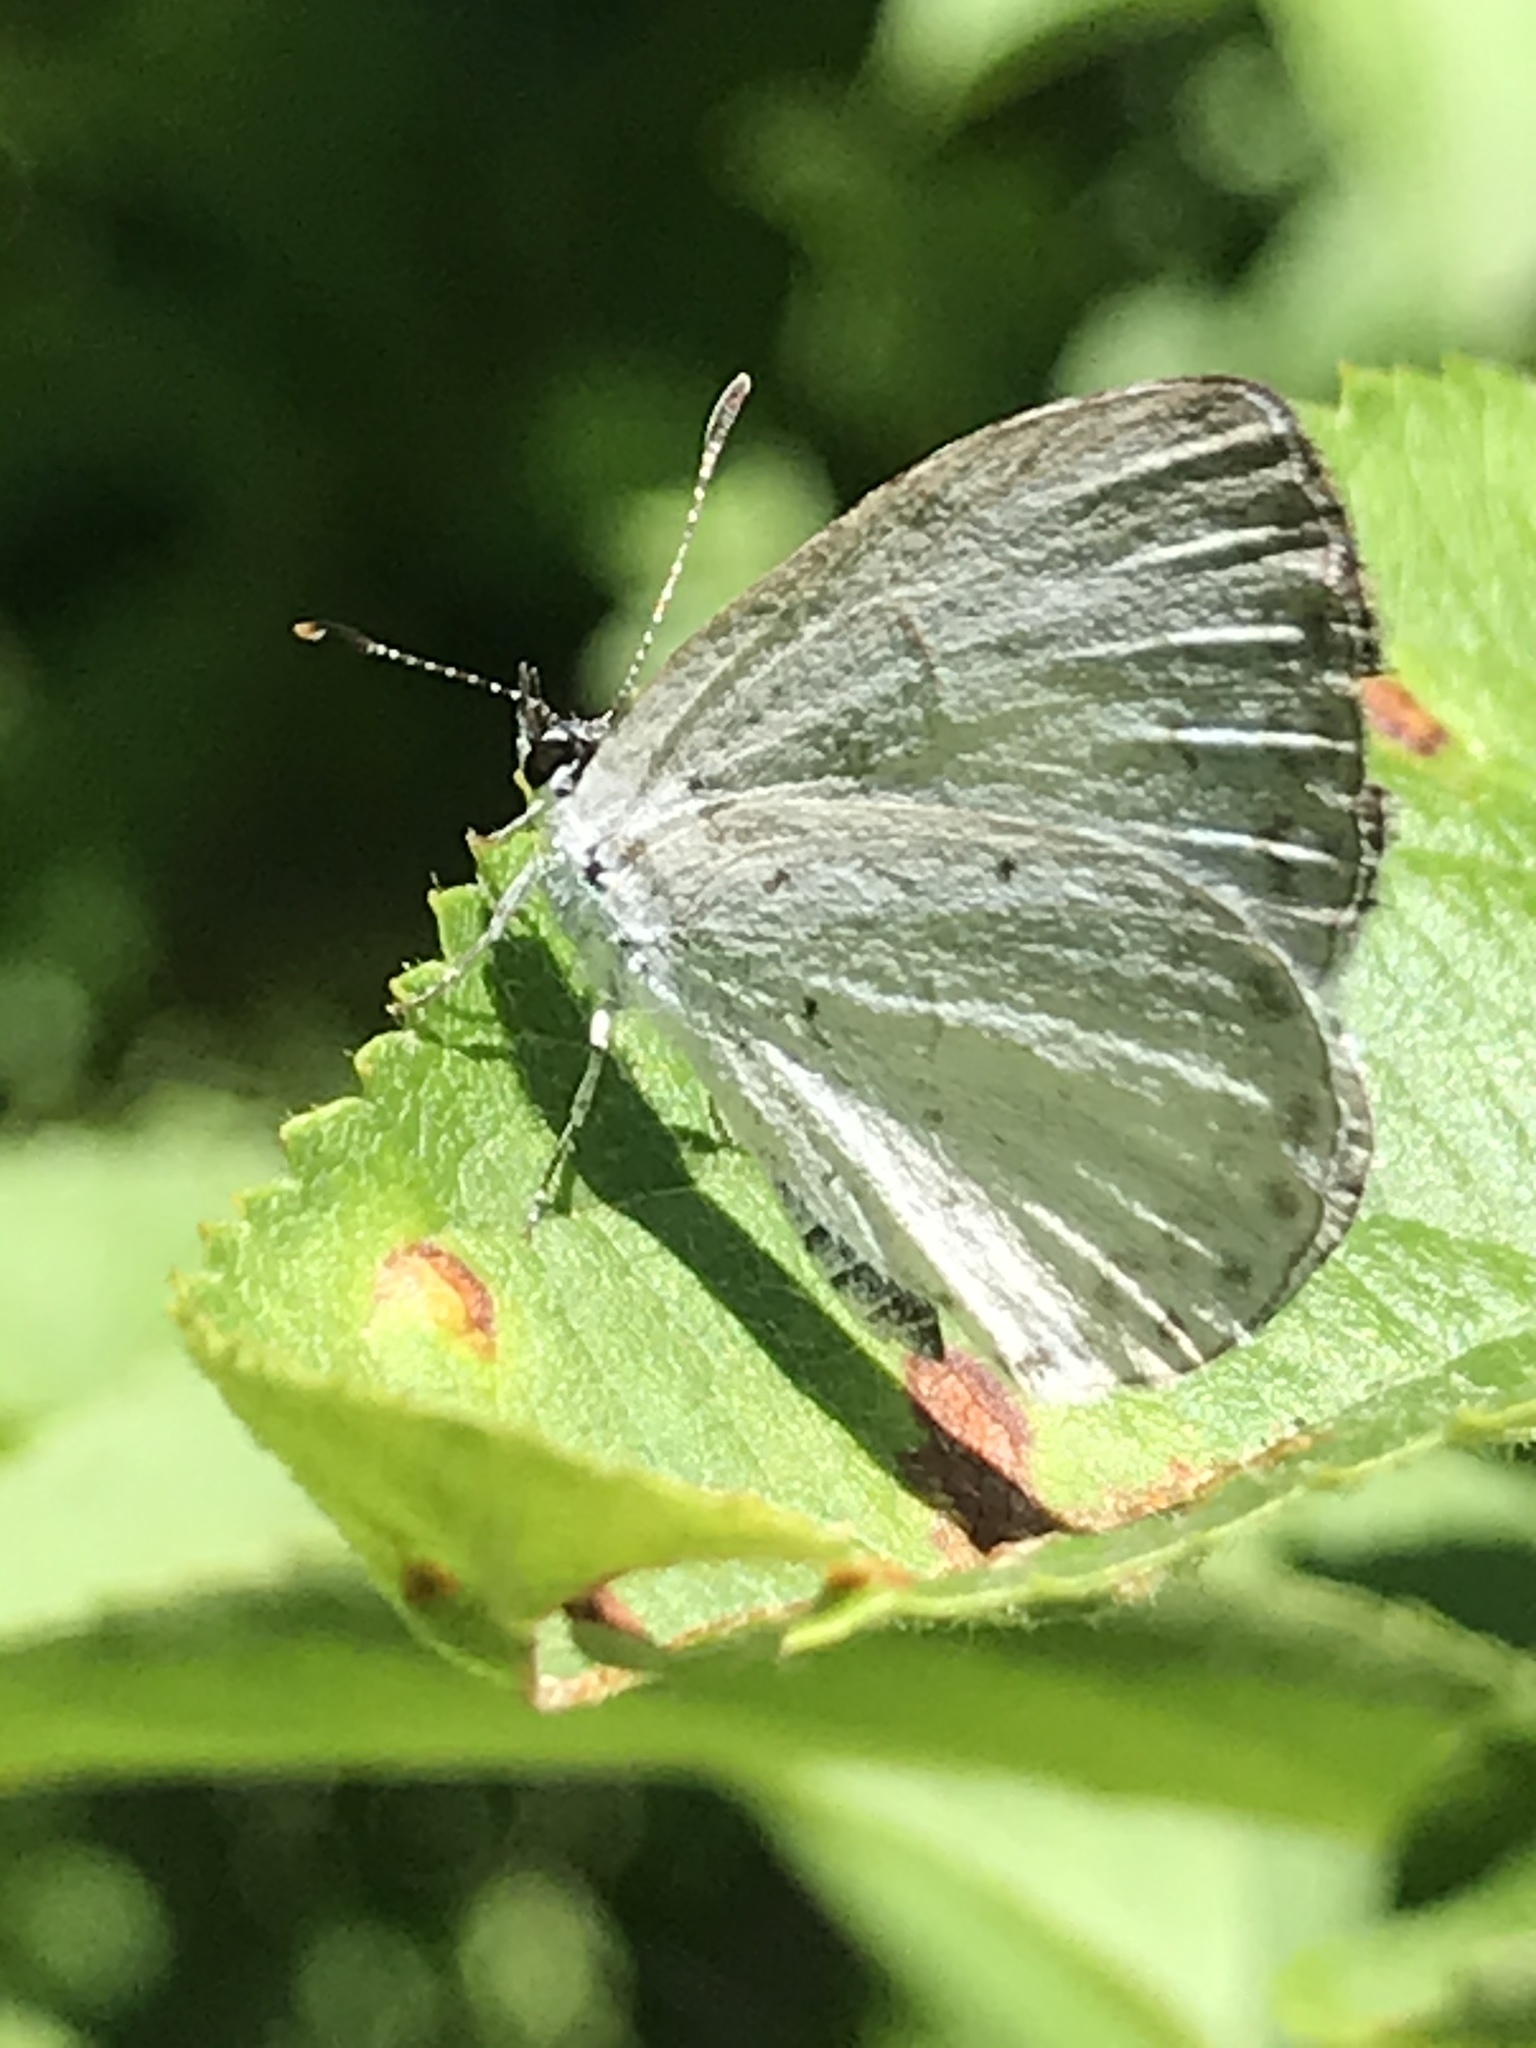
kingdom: Animalia
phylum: Arthropoda
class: Insecta
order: Lepidoptera
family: Lycaenidae
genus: Celastrina
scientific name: Celastrina neglectamajor
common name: Appalachian azure
